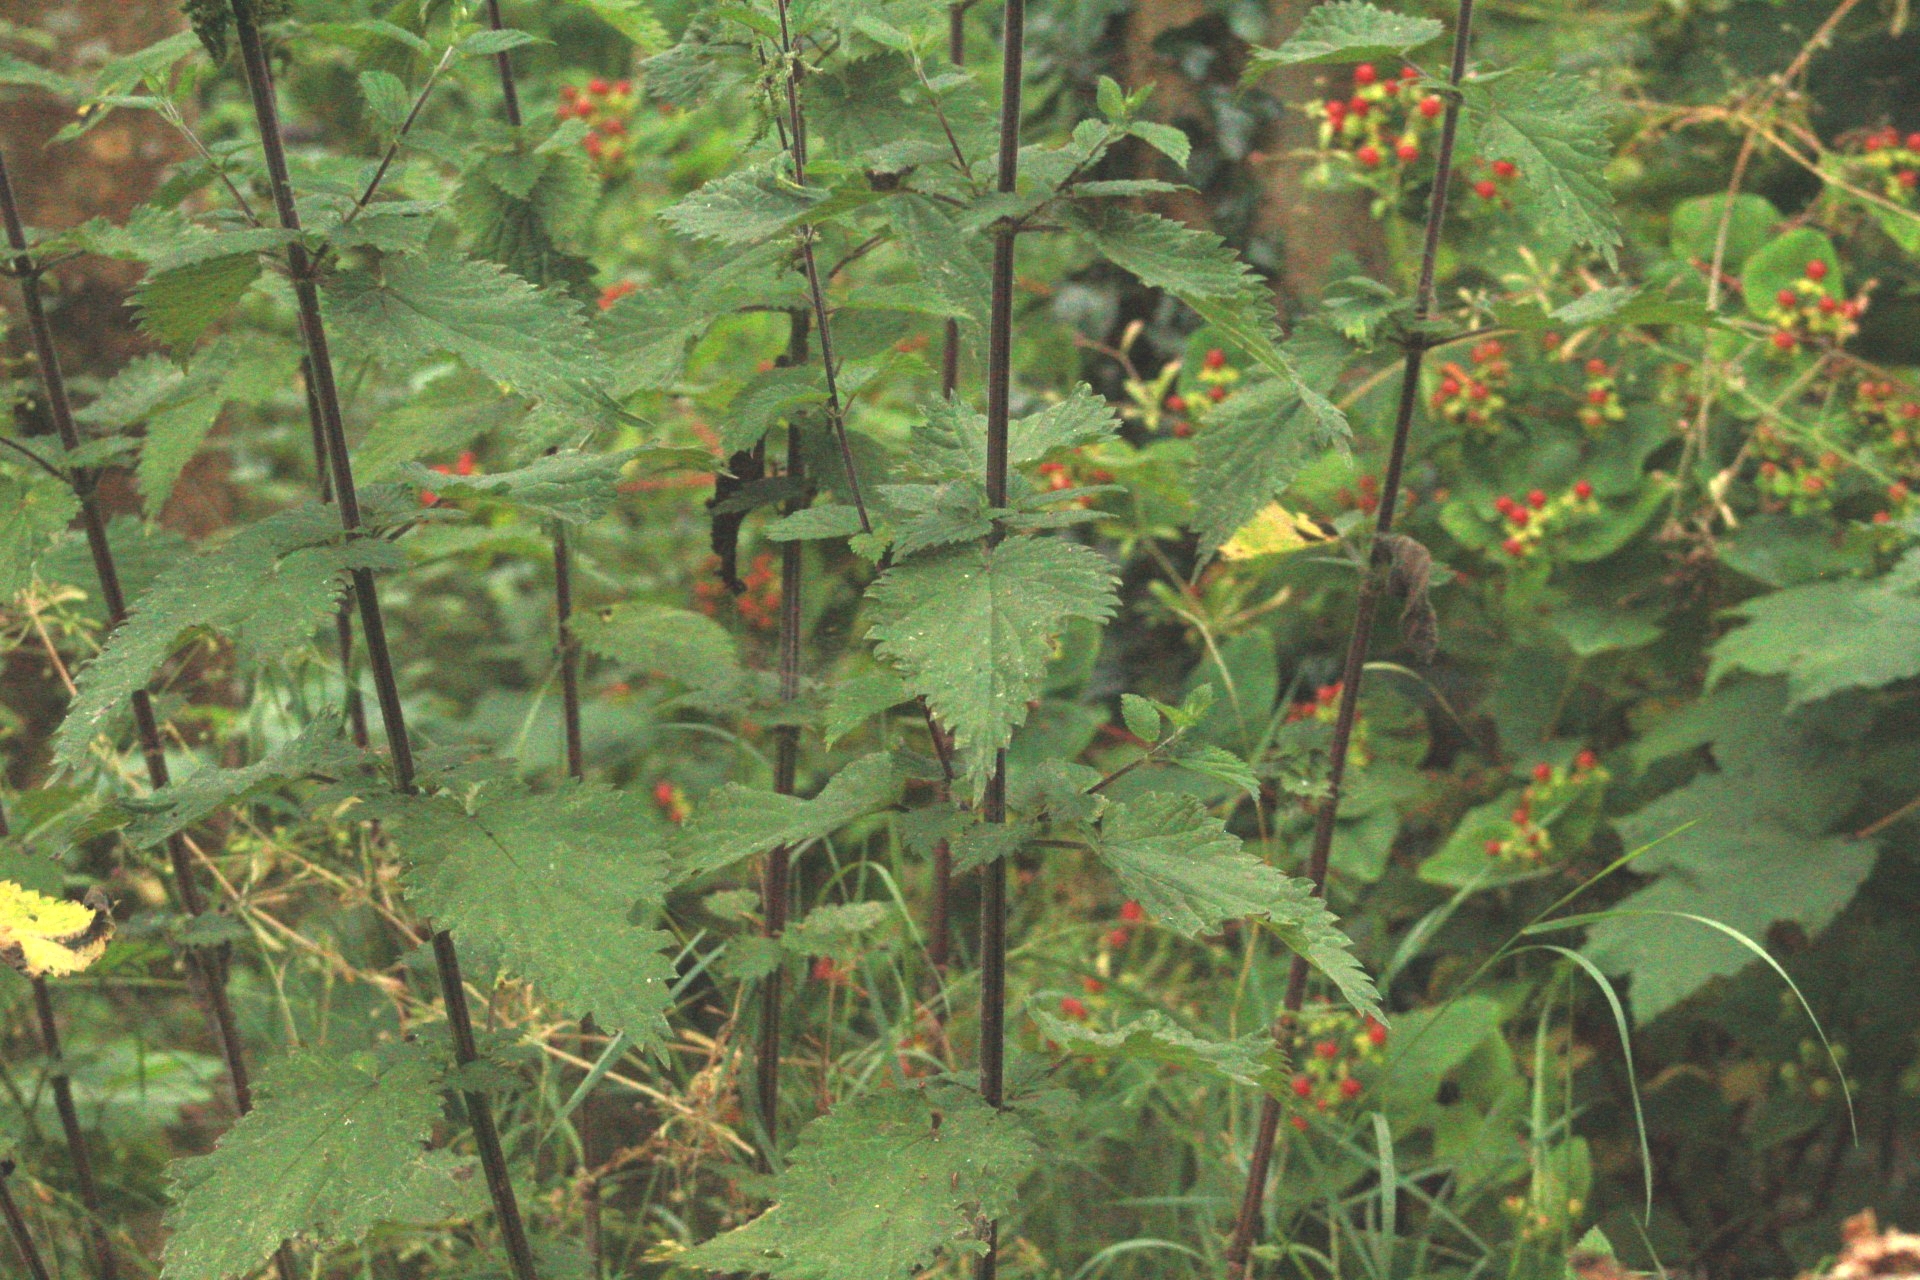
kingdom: Plantae
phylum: Tracheophyta
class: Magnoliopsida
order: Rosales
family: Urticaceae
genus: Urtica
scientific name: Urtica dioica
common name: Common nettle
